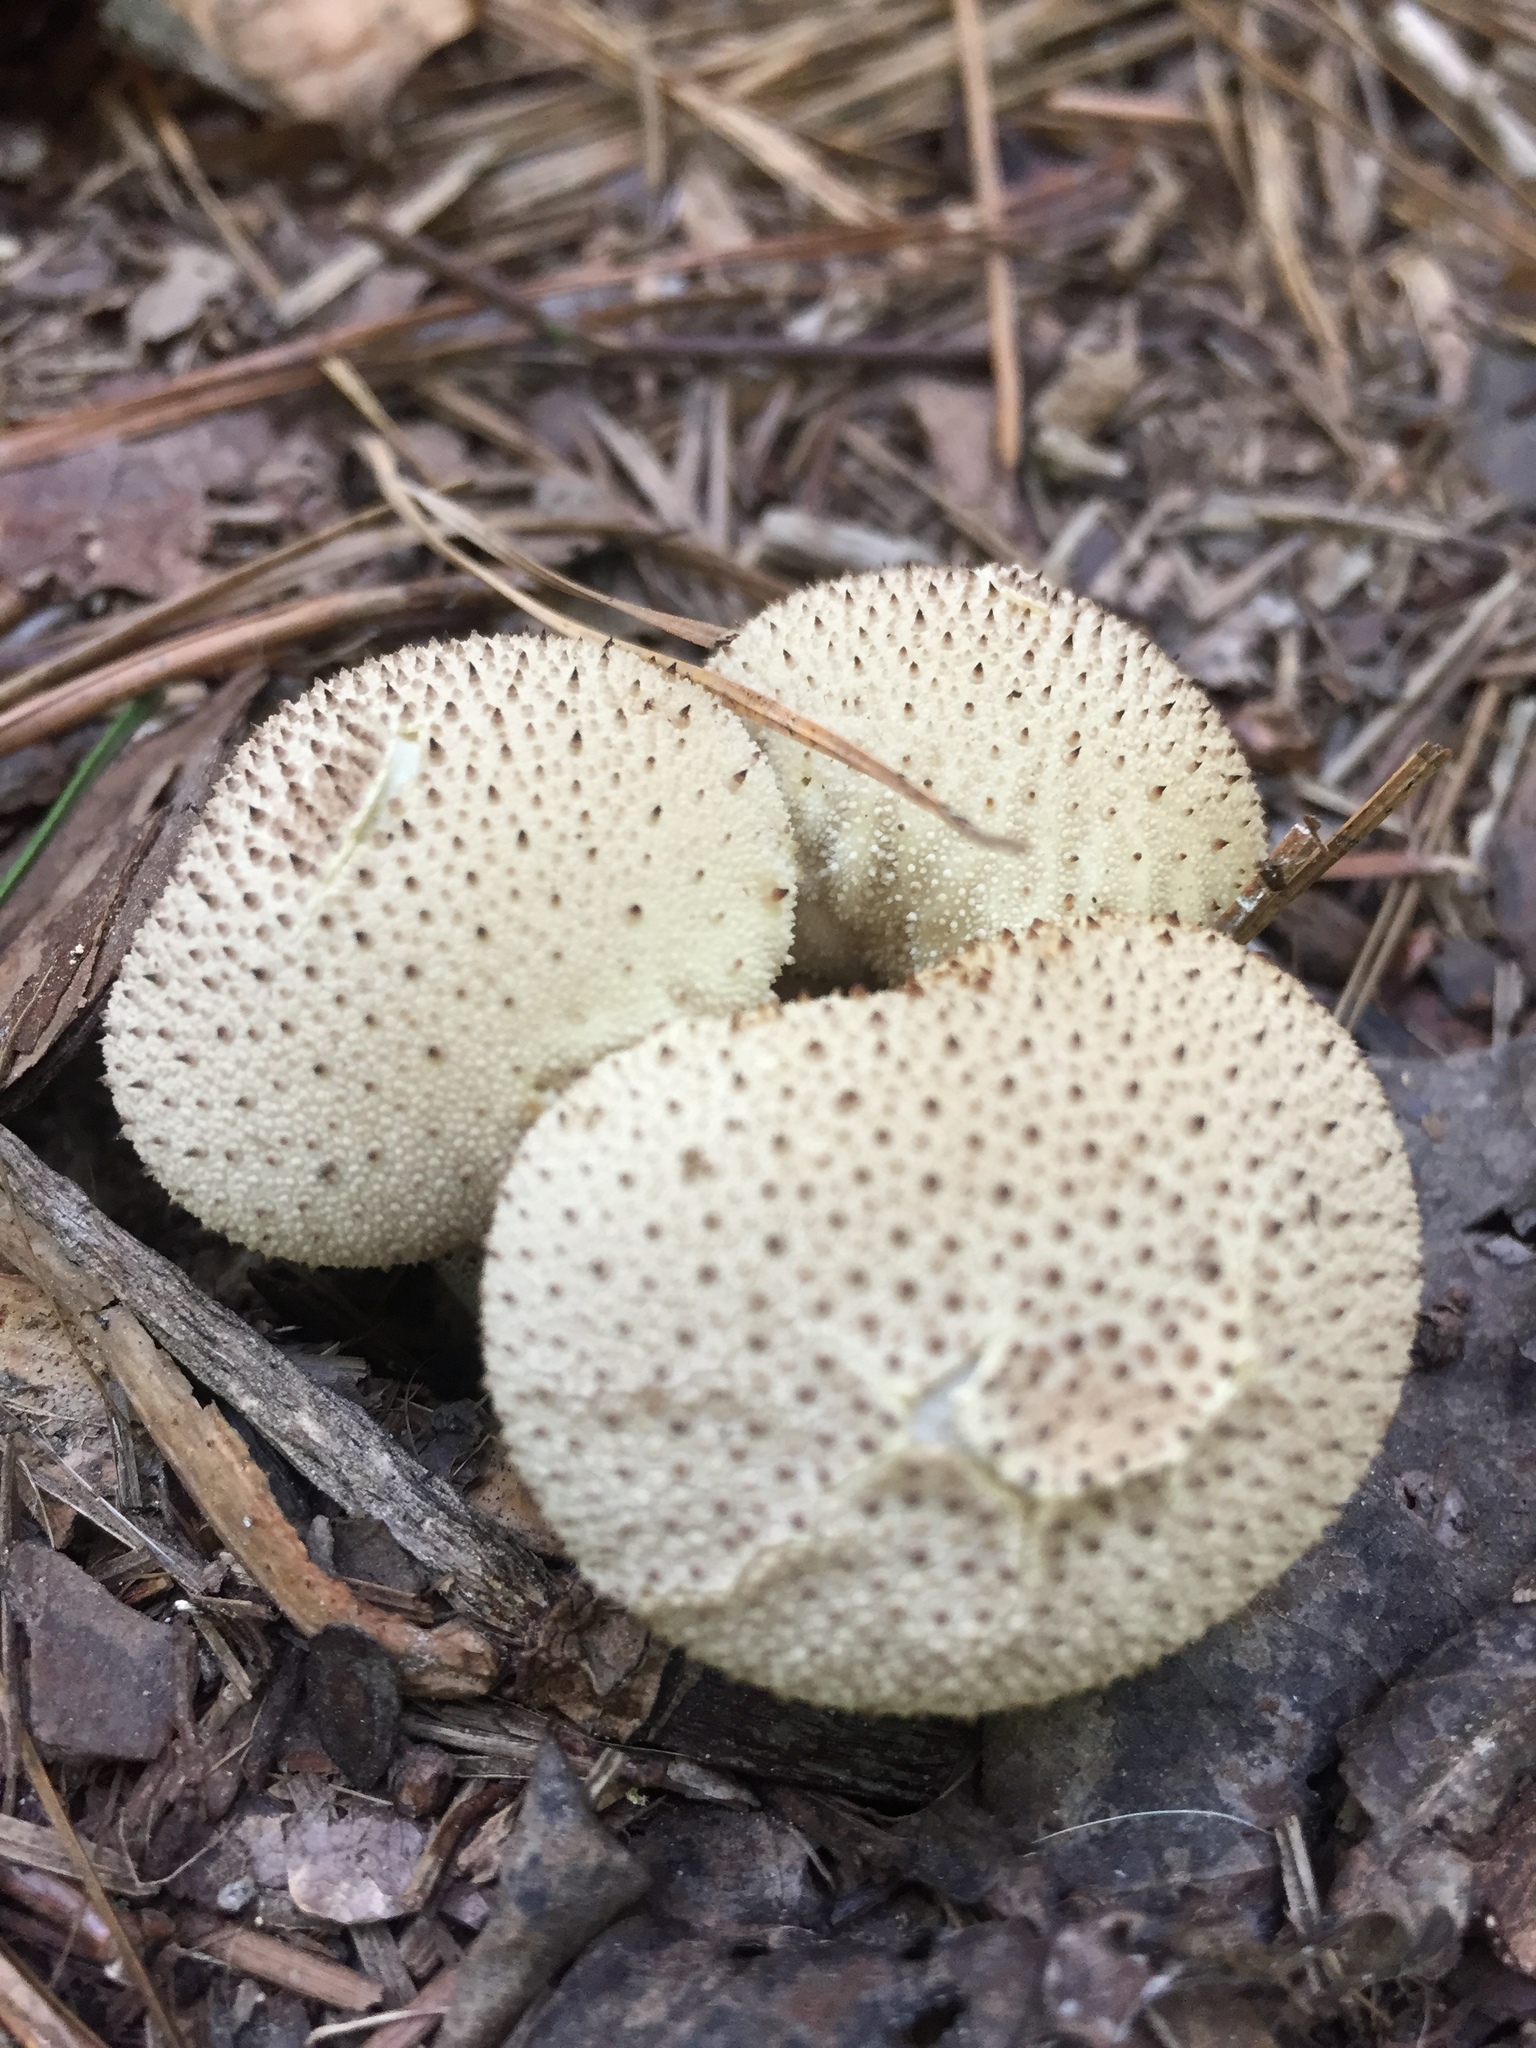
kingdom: Fungi
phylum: Basidiomycota
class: Agaricomycetes
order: Agaricales
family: Lycoperdaceae
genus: Lycoperdon
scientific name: Lycoperdon perlatum
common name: Common puffball
